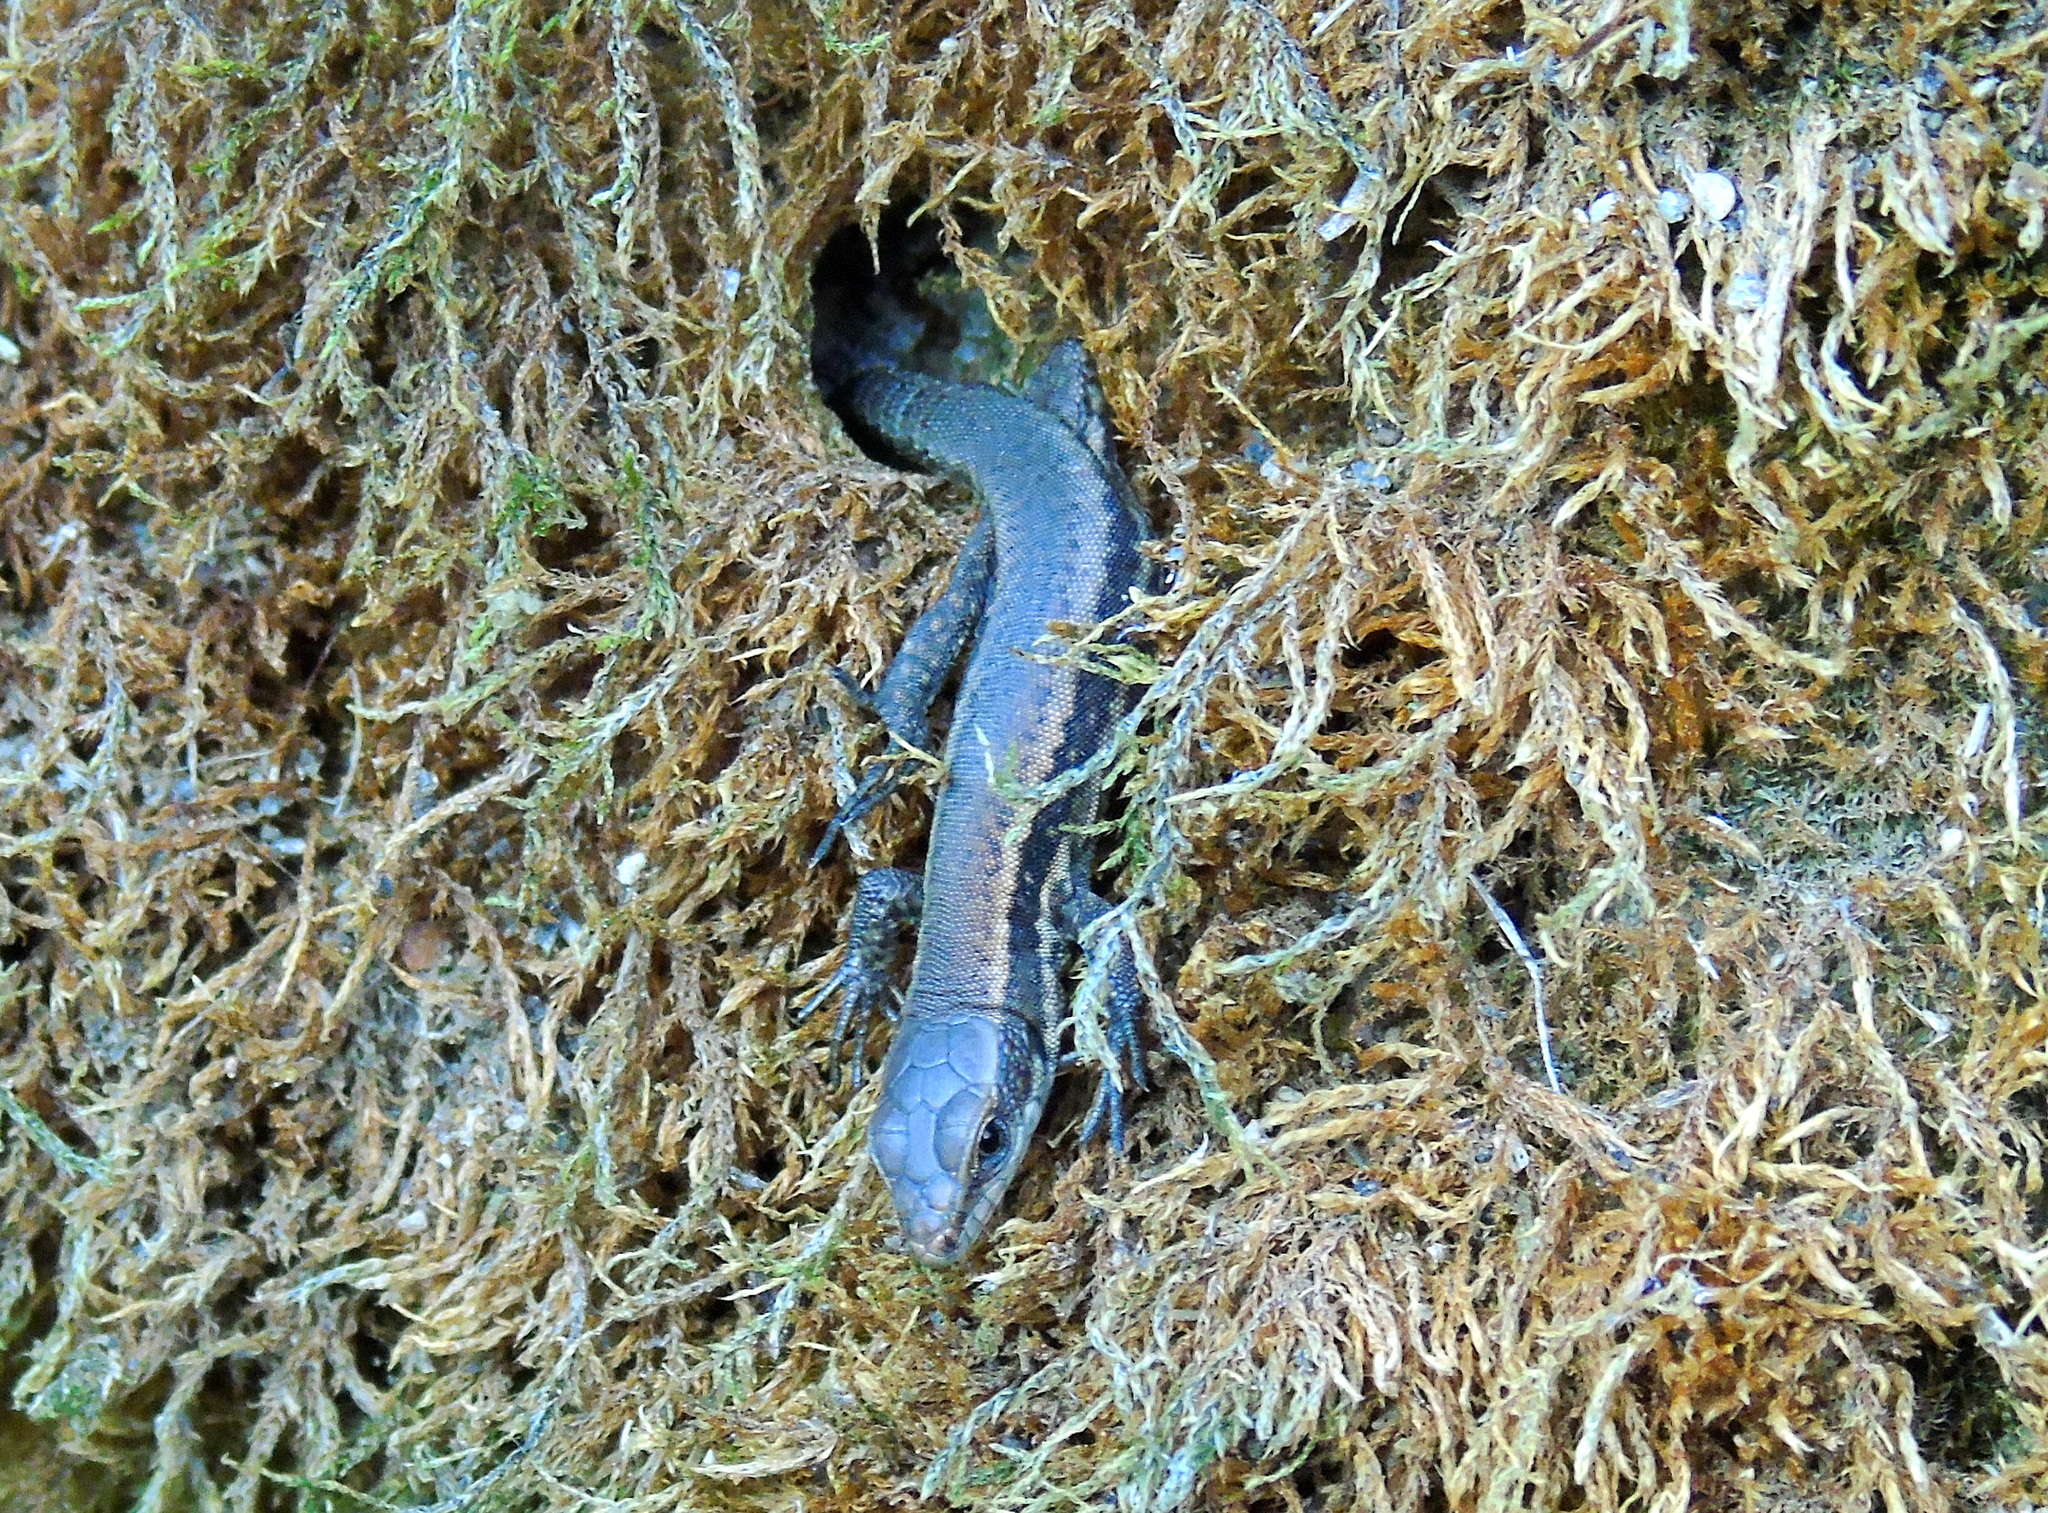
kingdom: Animalia
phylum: Chordata
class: Squamata
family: Lacertidae
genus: Podarcis
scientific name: Podarcis muralis
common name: Common wall lizard
